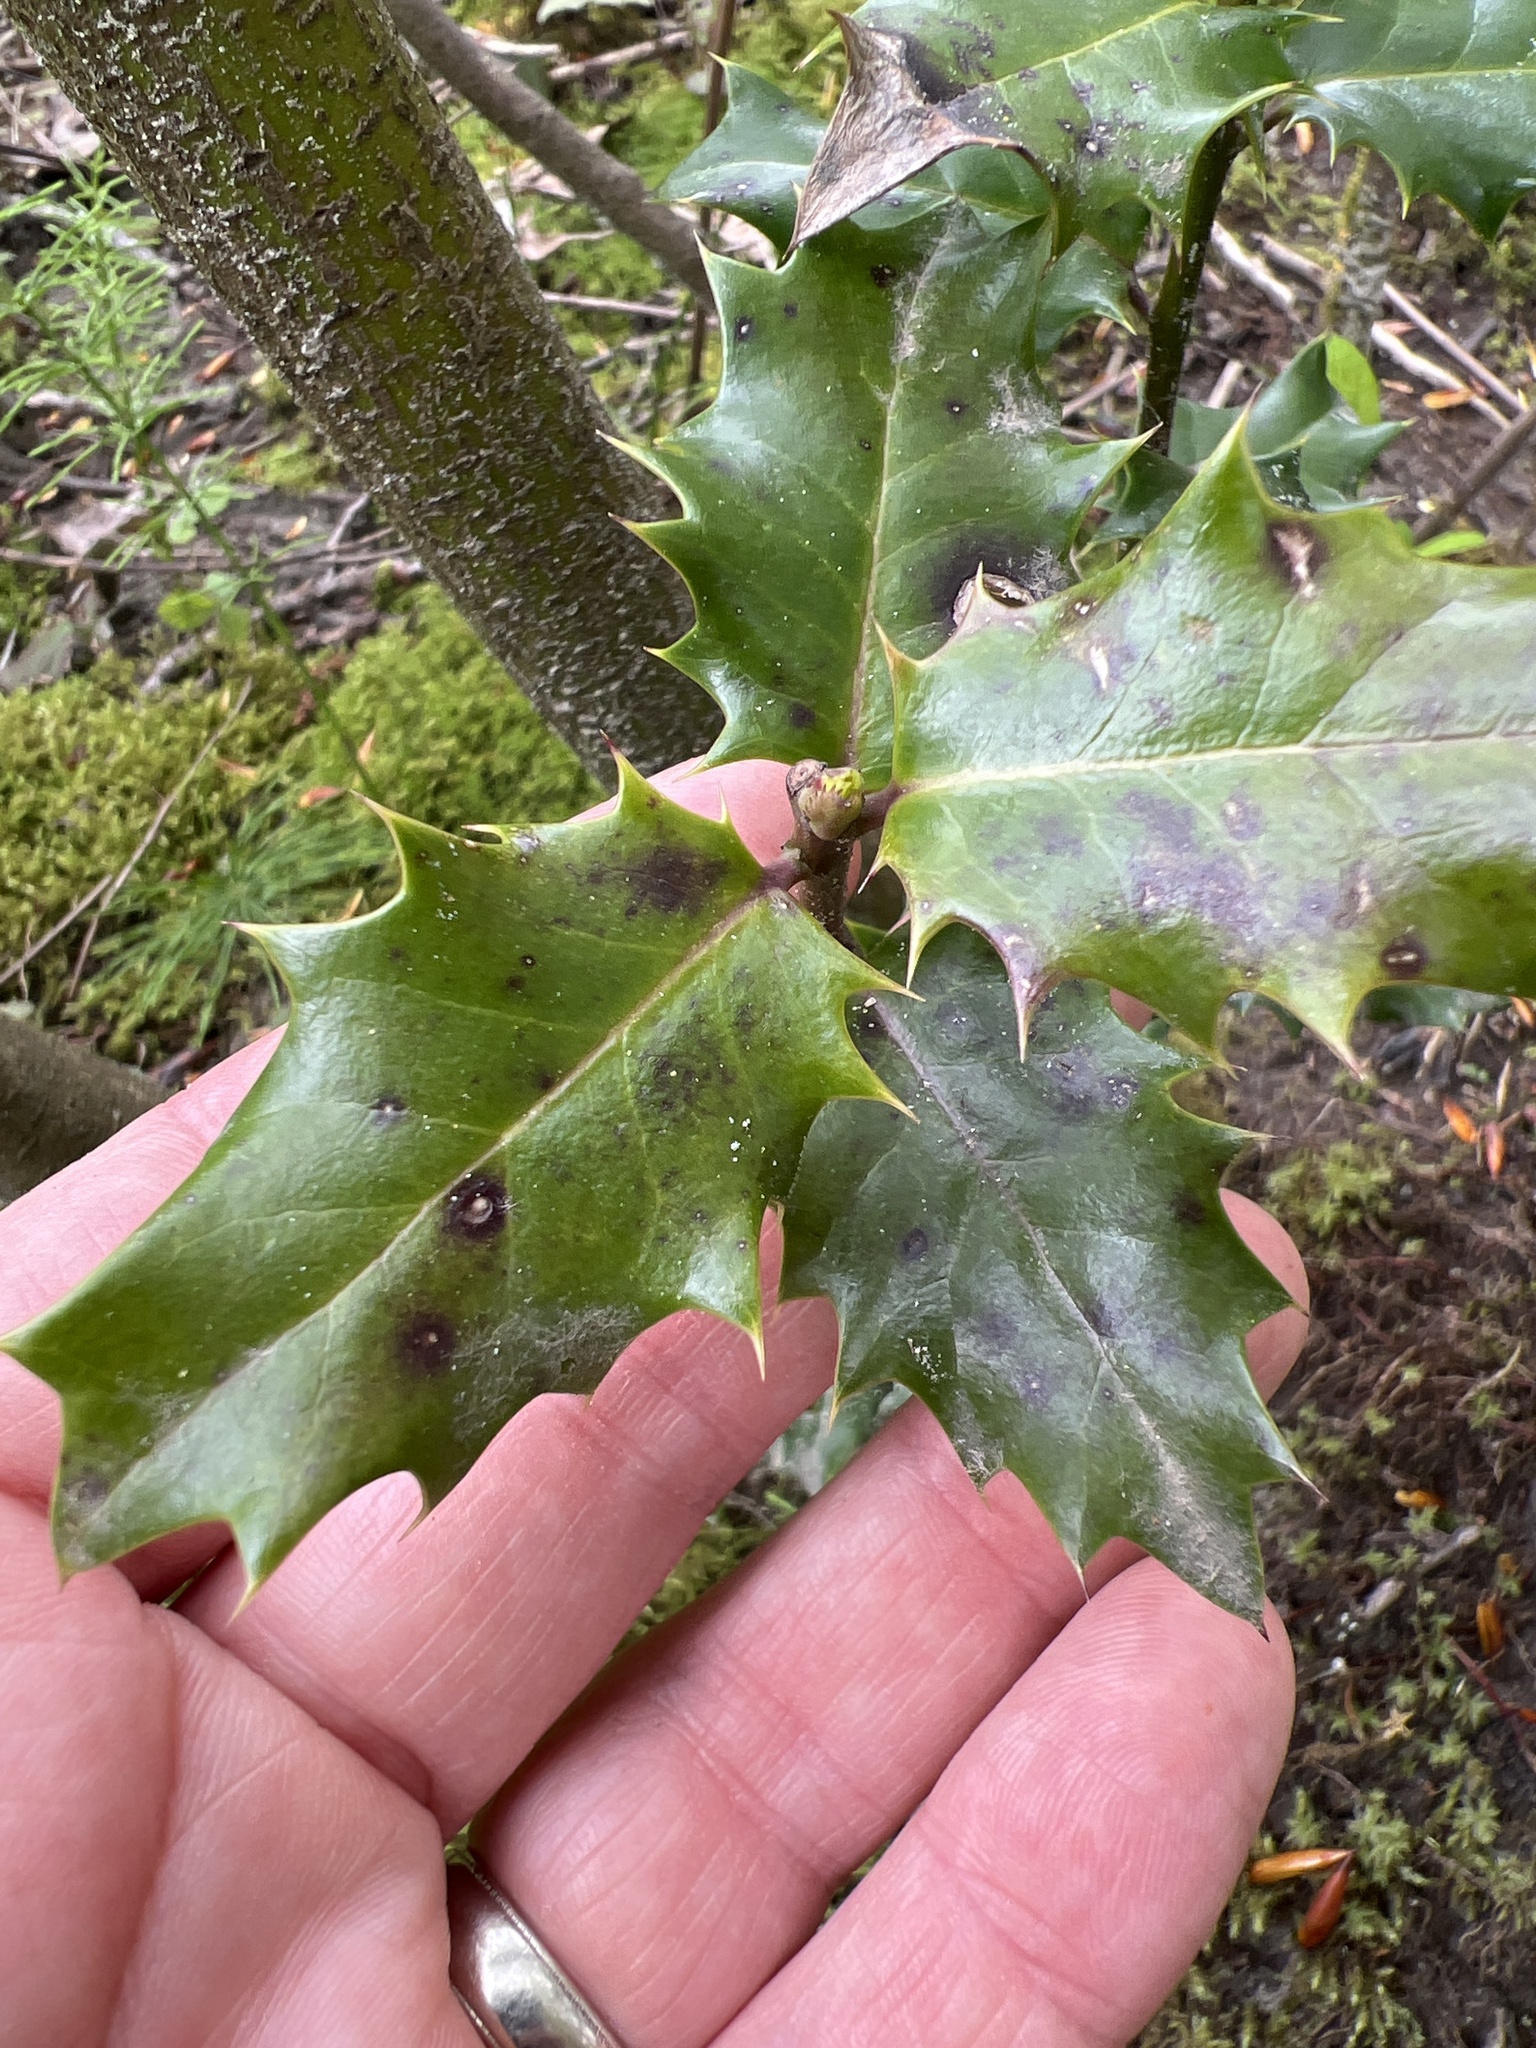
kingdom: Plantae
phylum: Tracheophyta
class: Magnoliopsida
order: Aquifoliales
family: Aquifoliaceae
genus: Ilex
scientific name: Ilex aquifolium
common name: English holly
